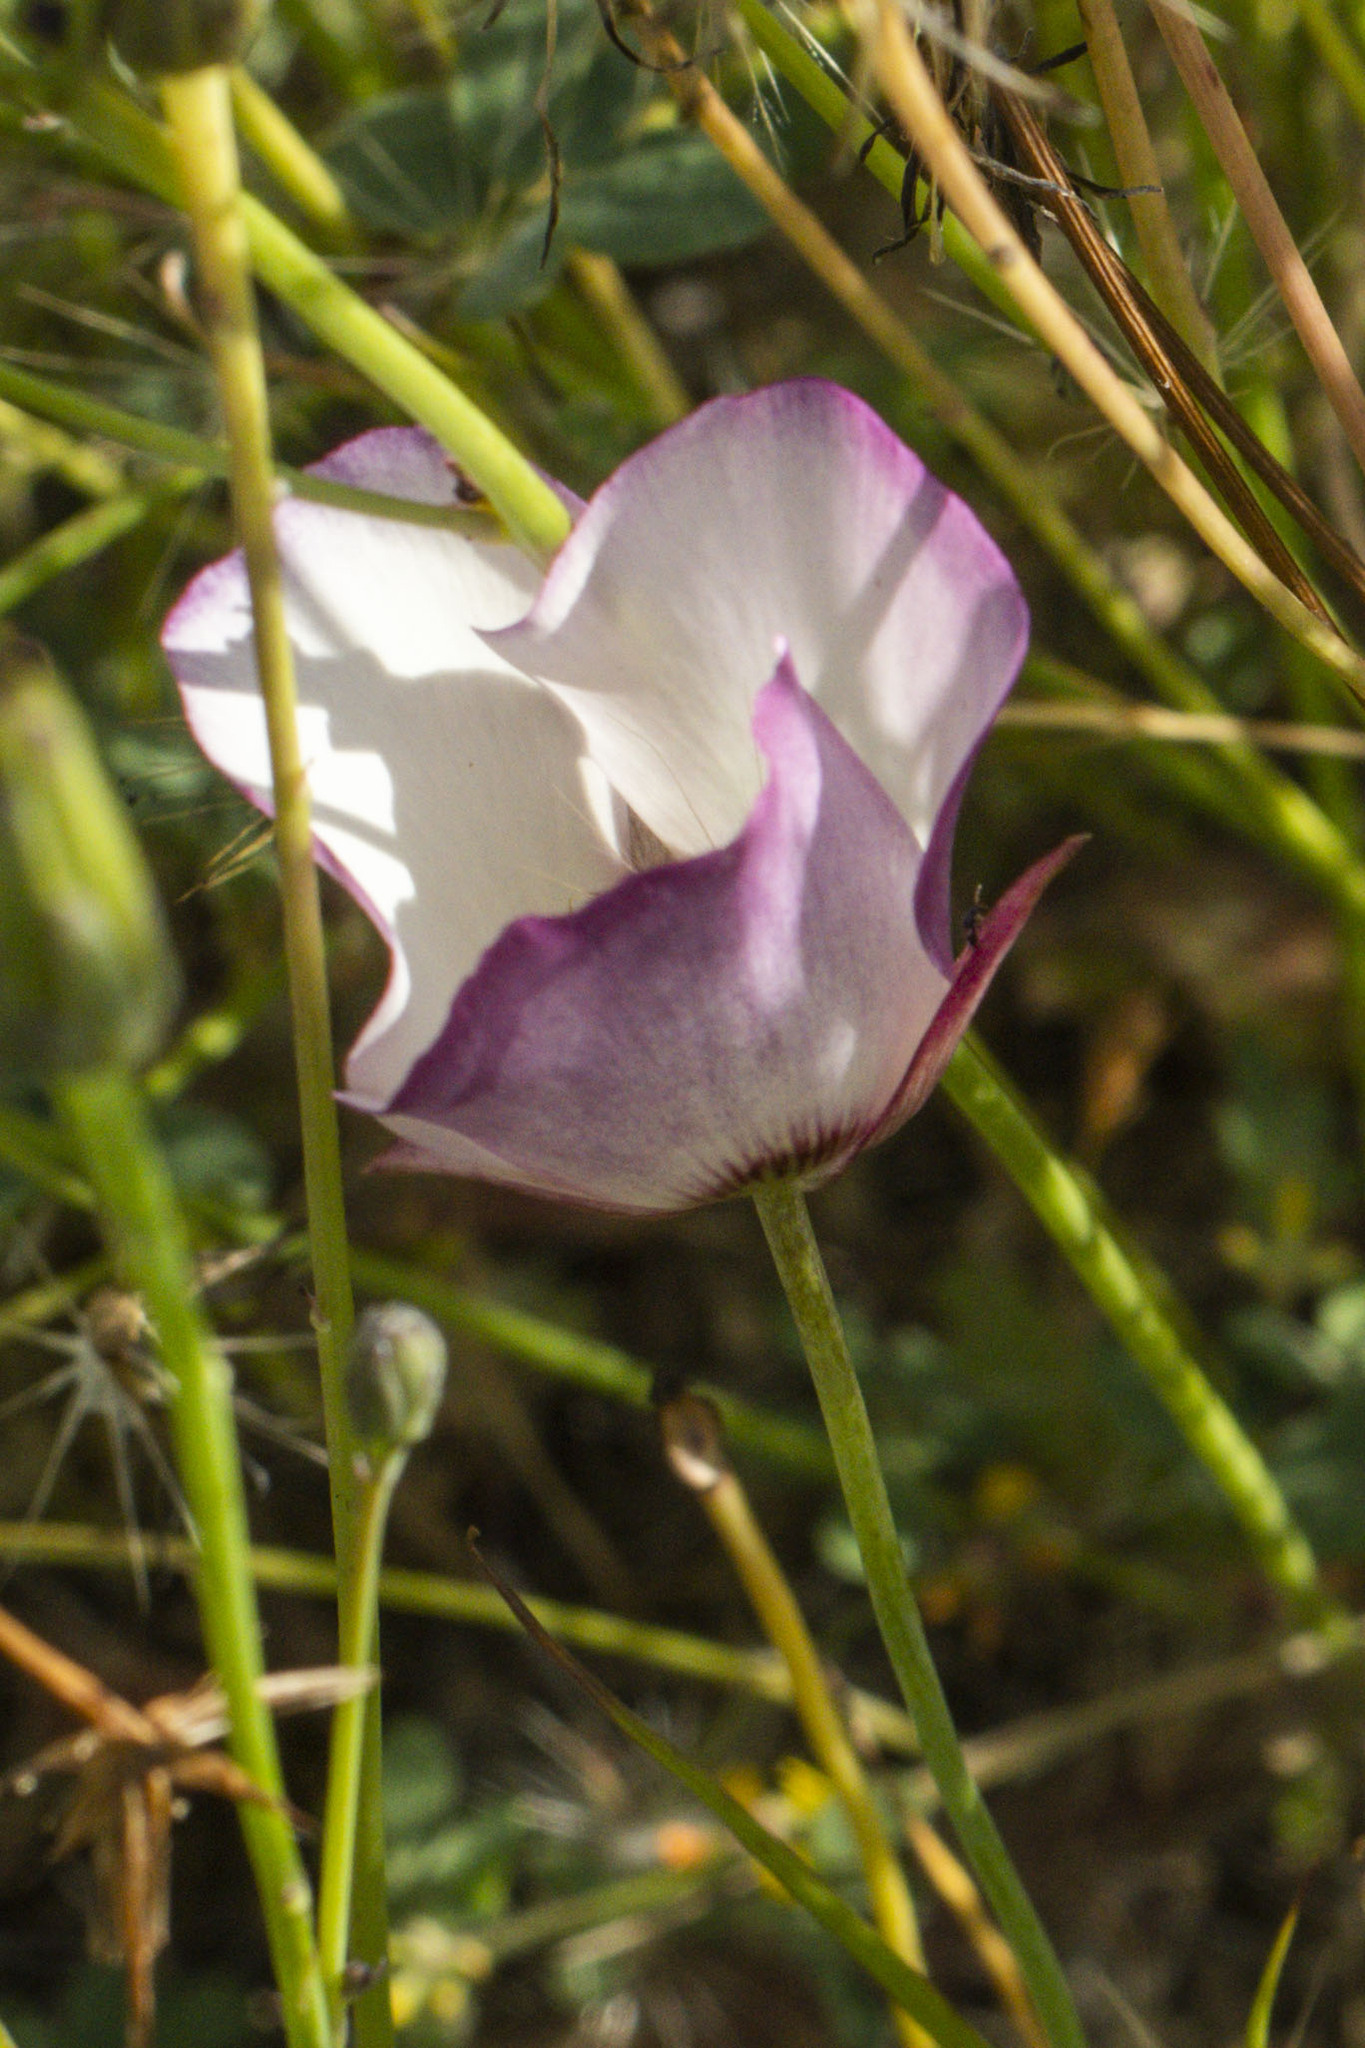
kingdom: Plantae
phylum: Tracheophyta
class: Liliopsida
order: Liliales
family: Liliaceae
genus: Calochortus
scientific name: Calochortus catalinae
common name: Catalina mariposa-lily
